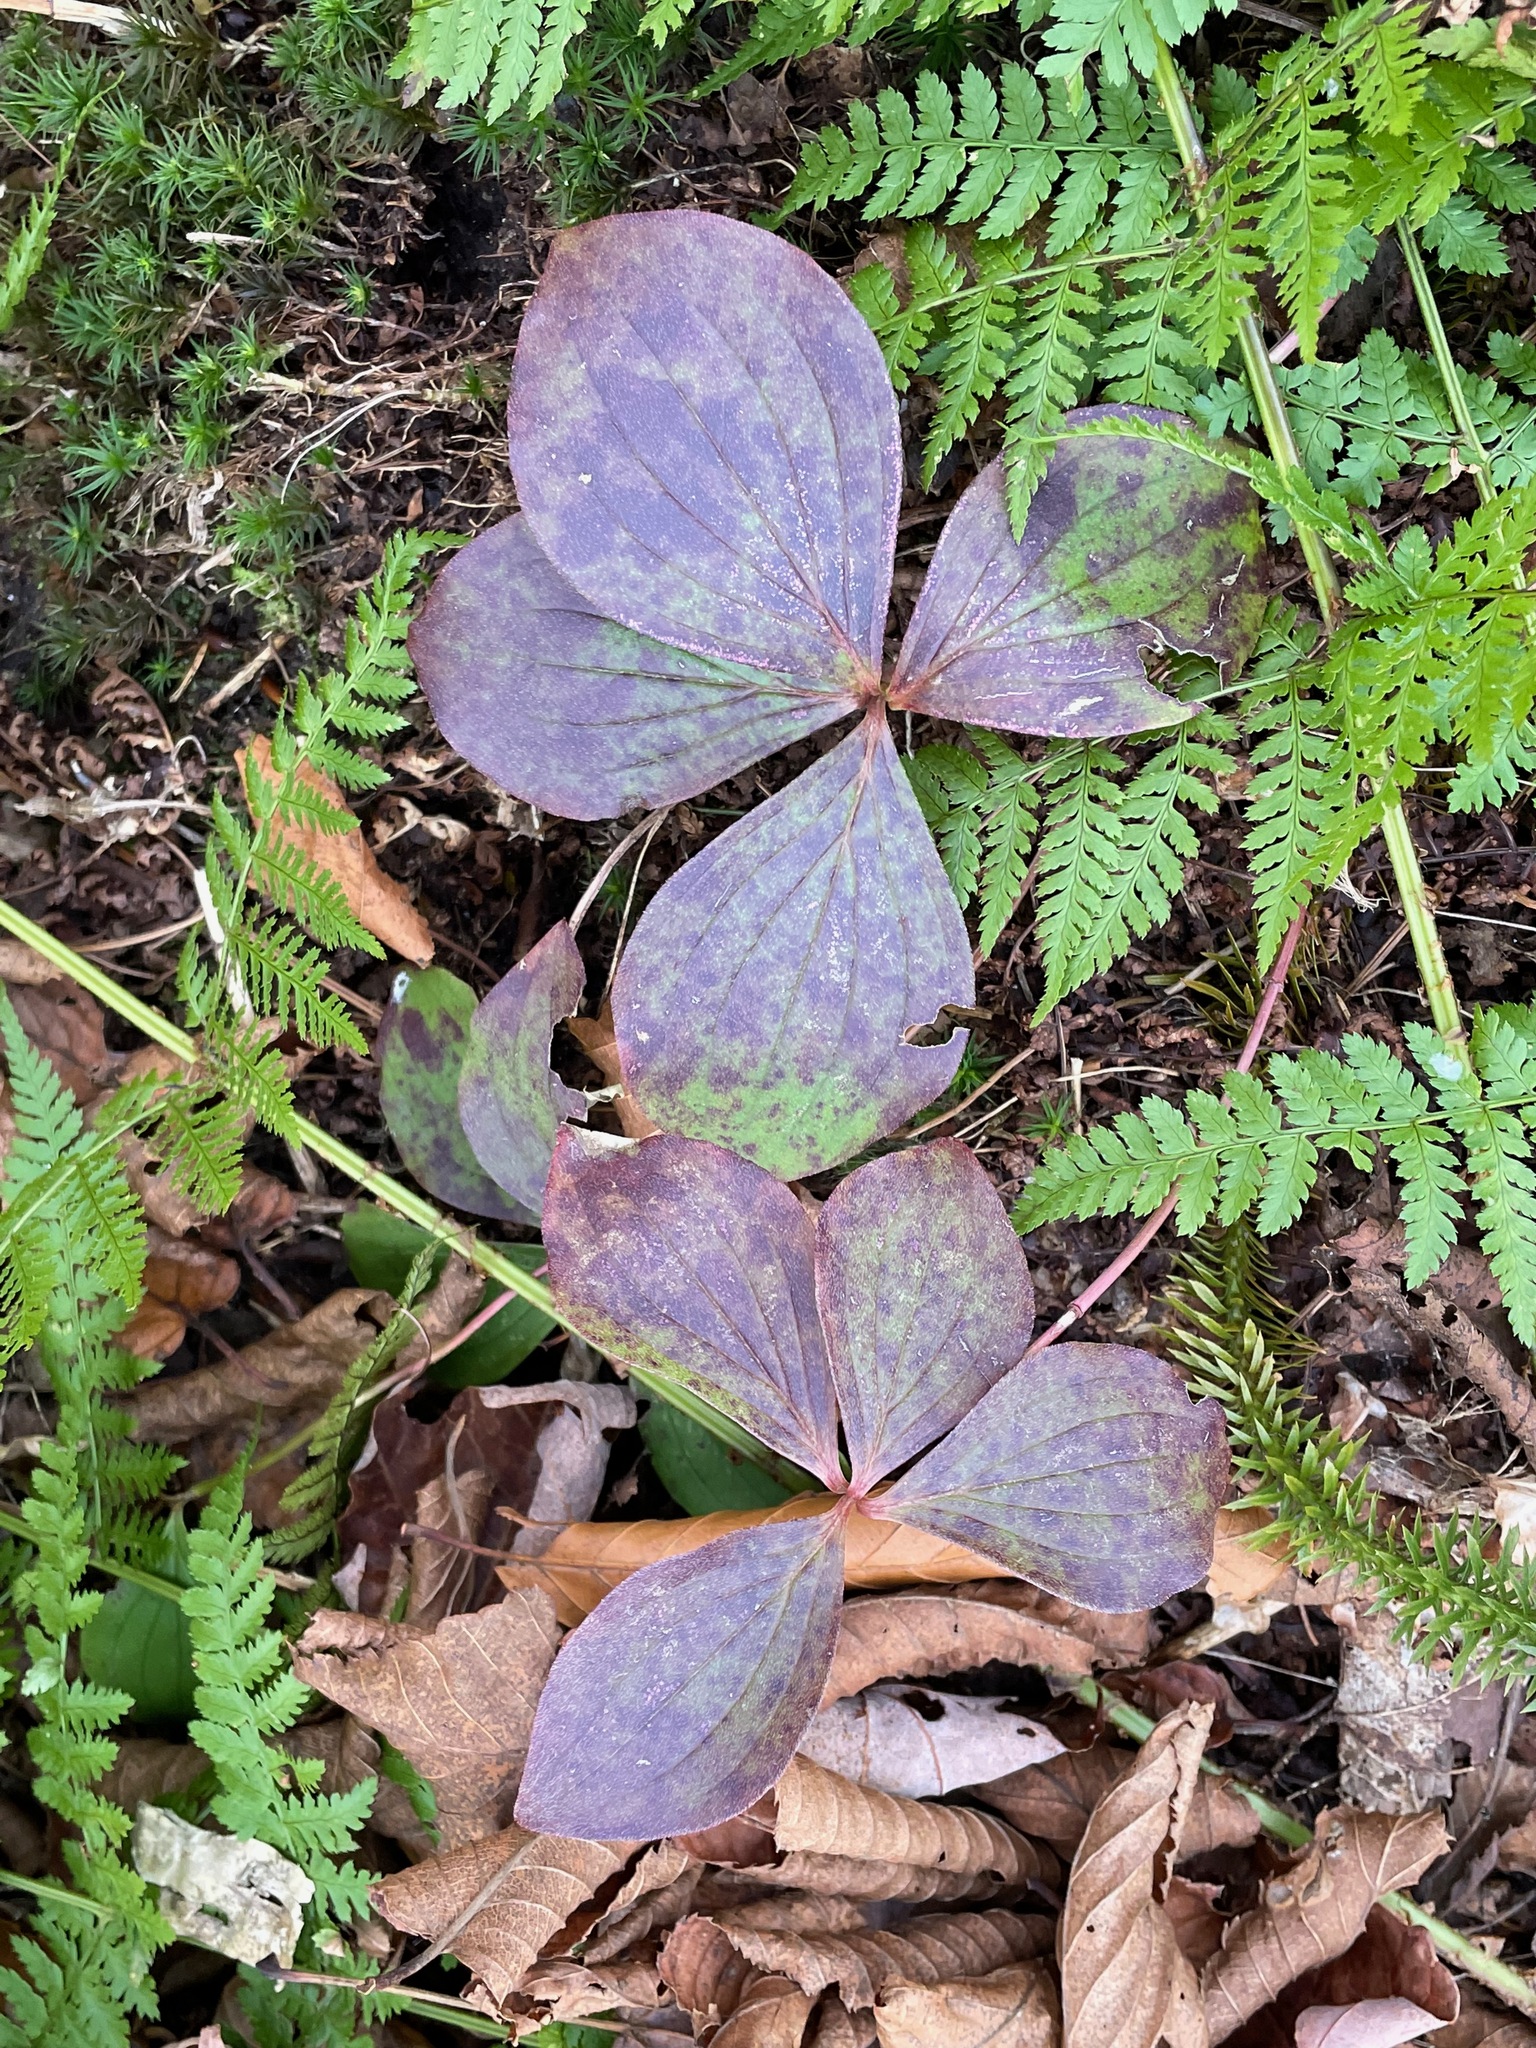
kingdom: Plantae
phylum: Tracheophyta
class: Magnoliopsida
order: Cornales
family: Cornaceae
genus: Cornus
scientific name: Cornus canadensis
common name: Creeping dogwood
